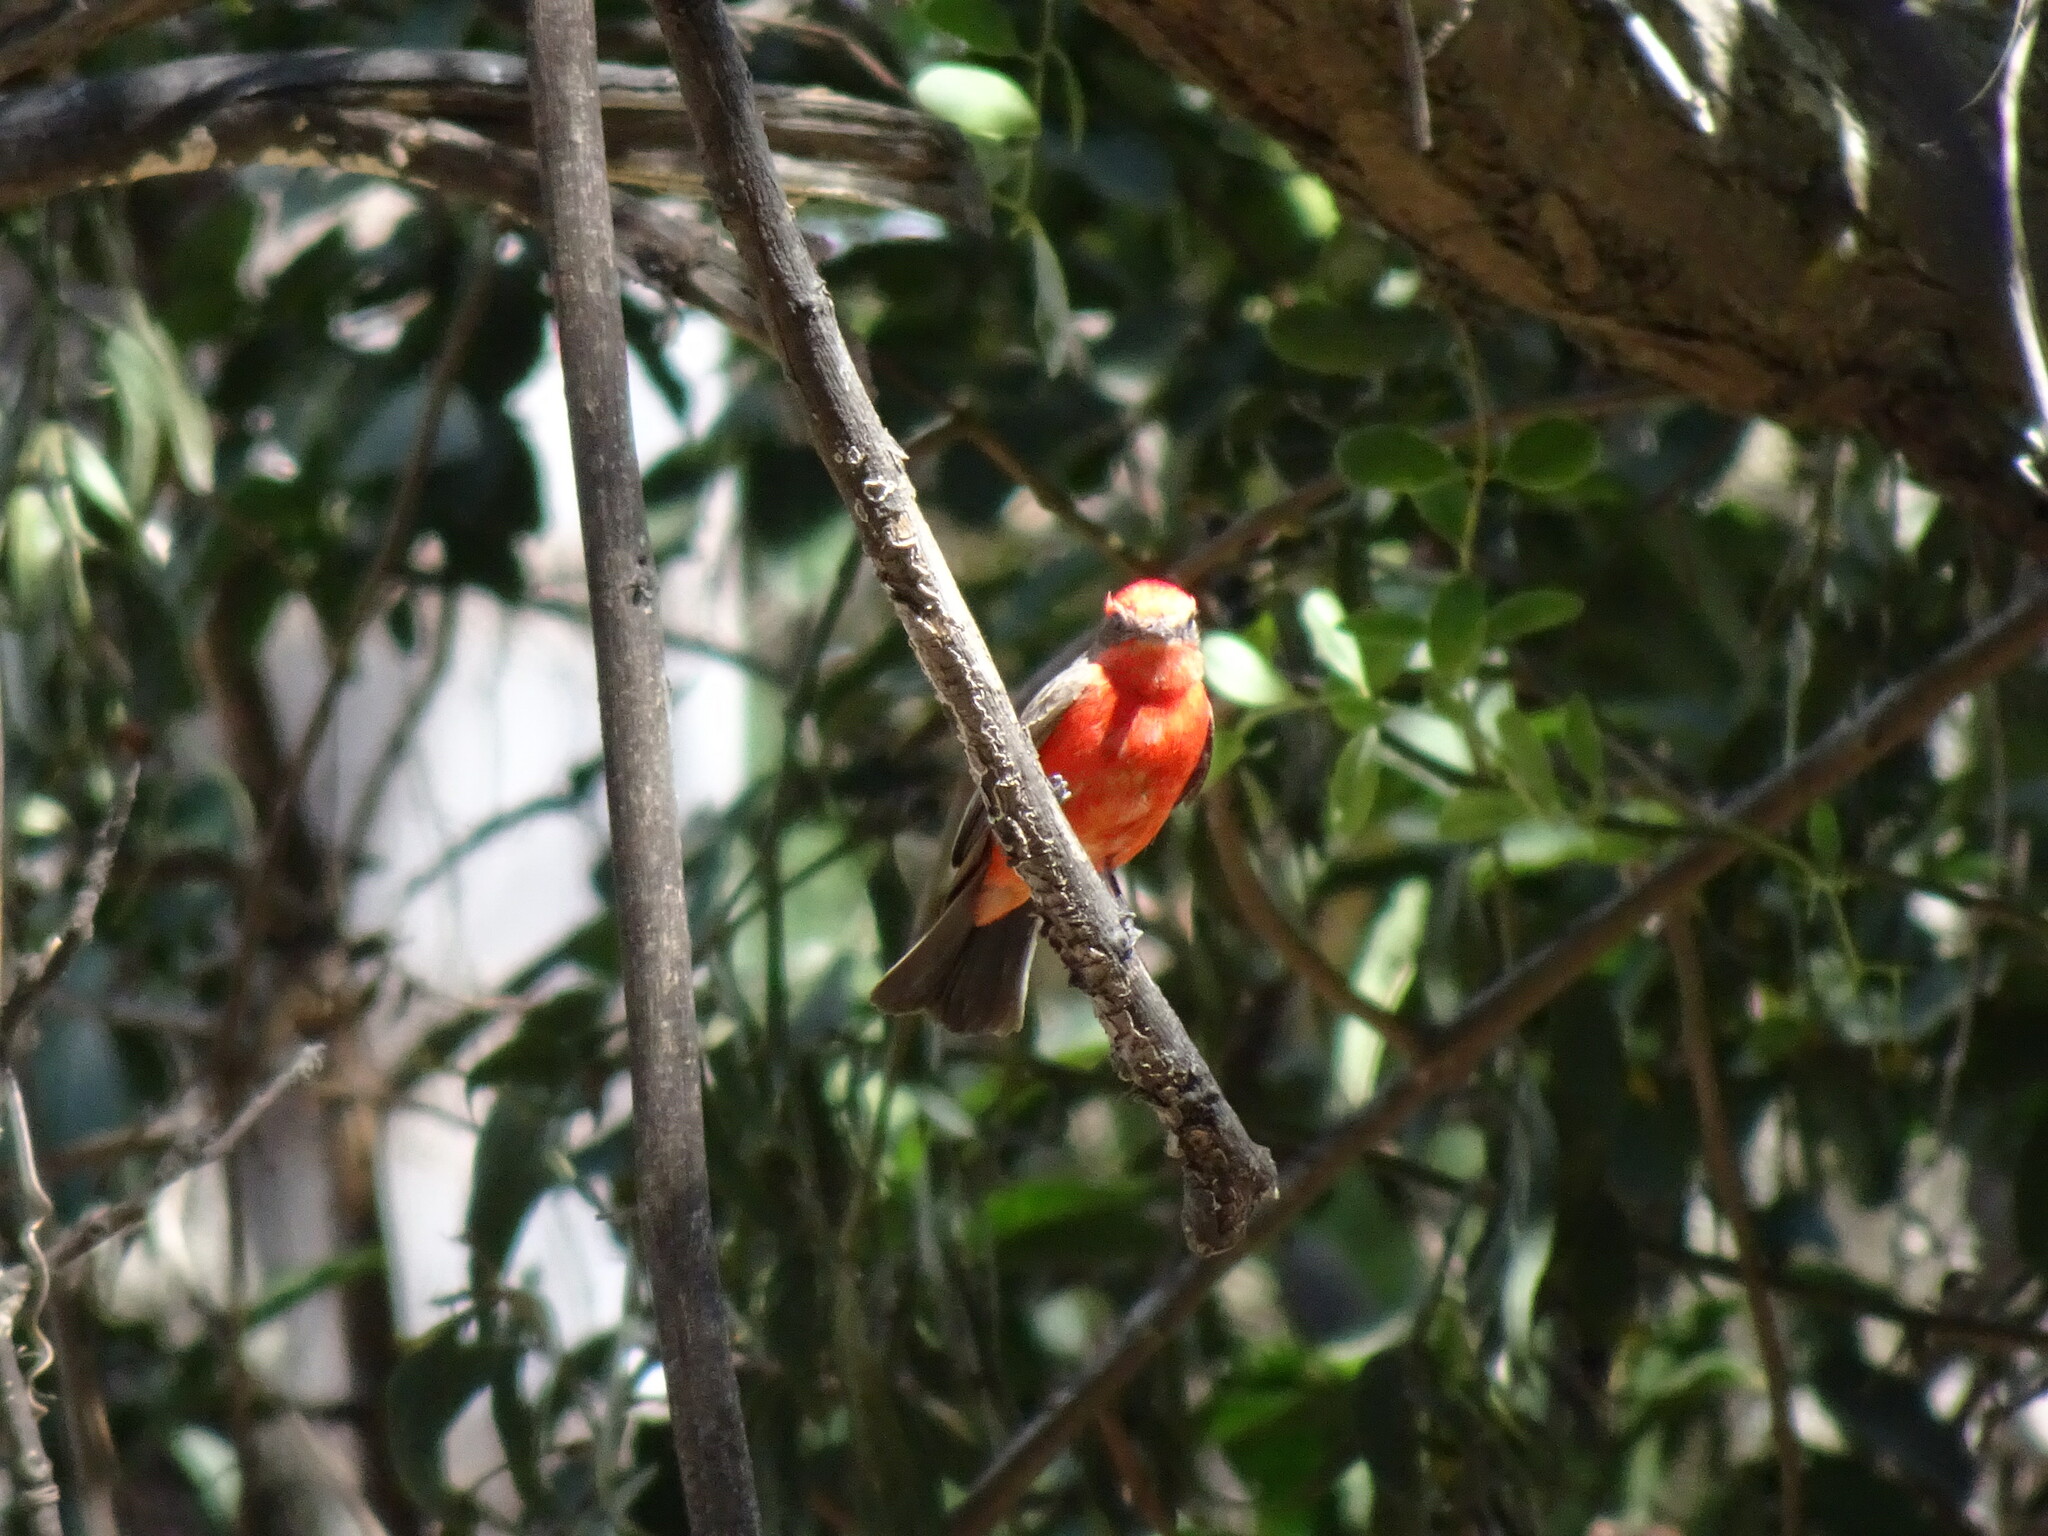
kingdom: Animalia
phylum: Chordata
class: Aves
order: Passeriformes
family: Tyrannidae
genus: Pyrocephalus
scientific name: Pyrocephalus rubinus
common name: Vermilion flycatcher
